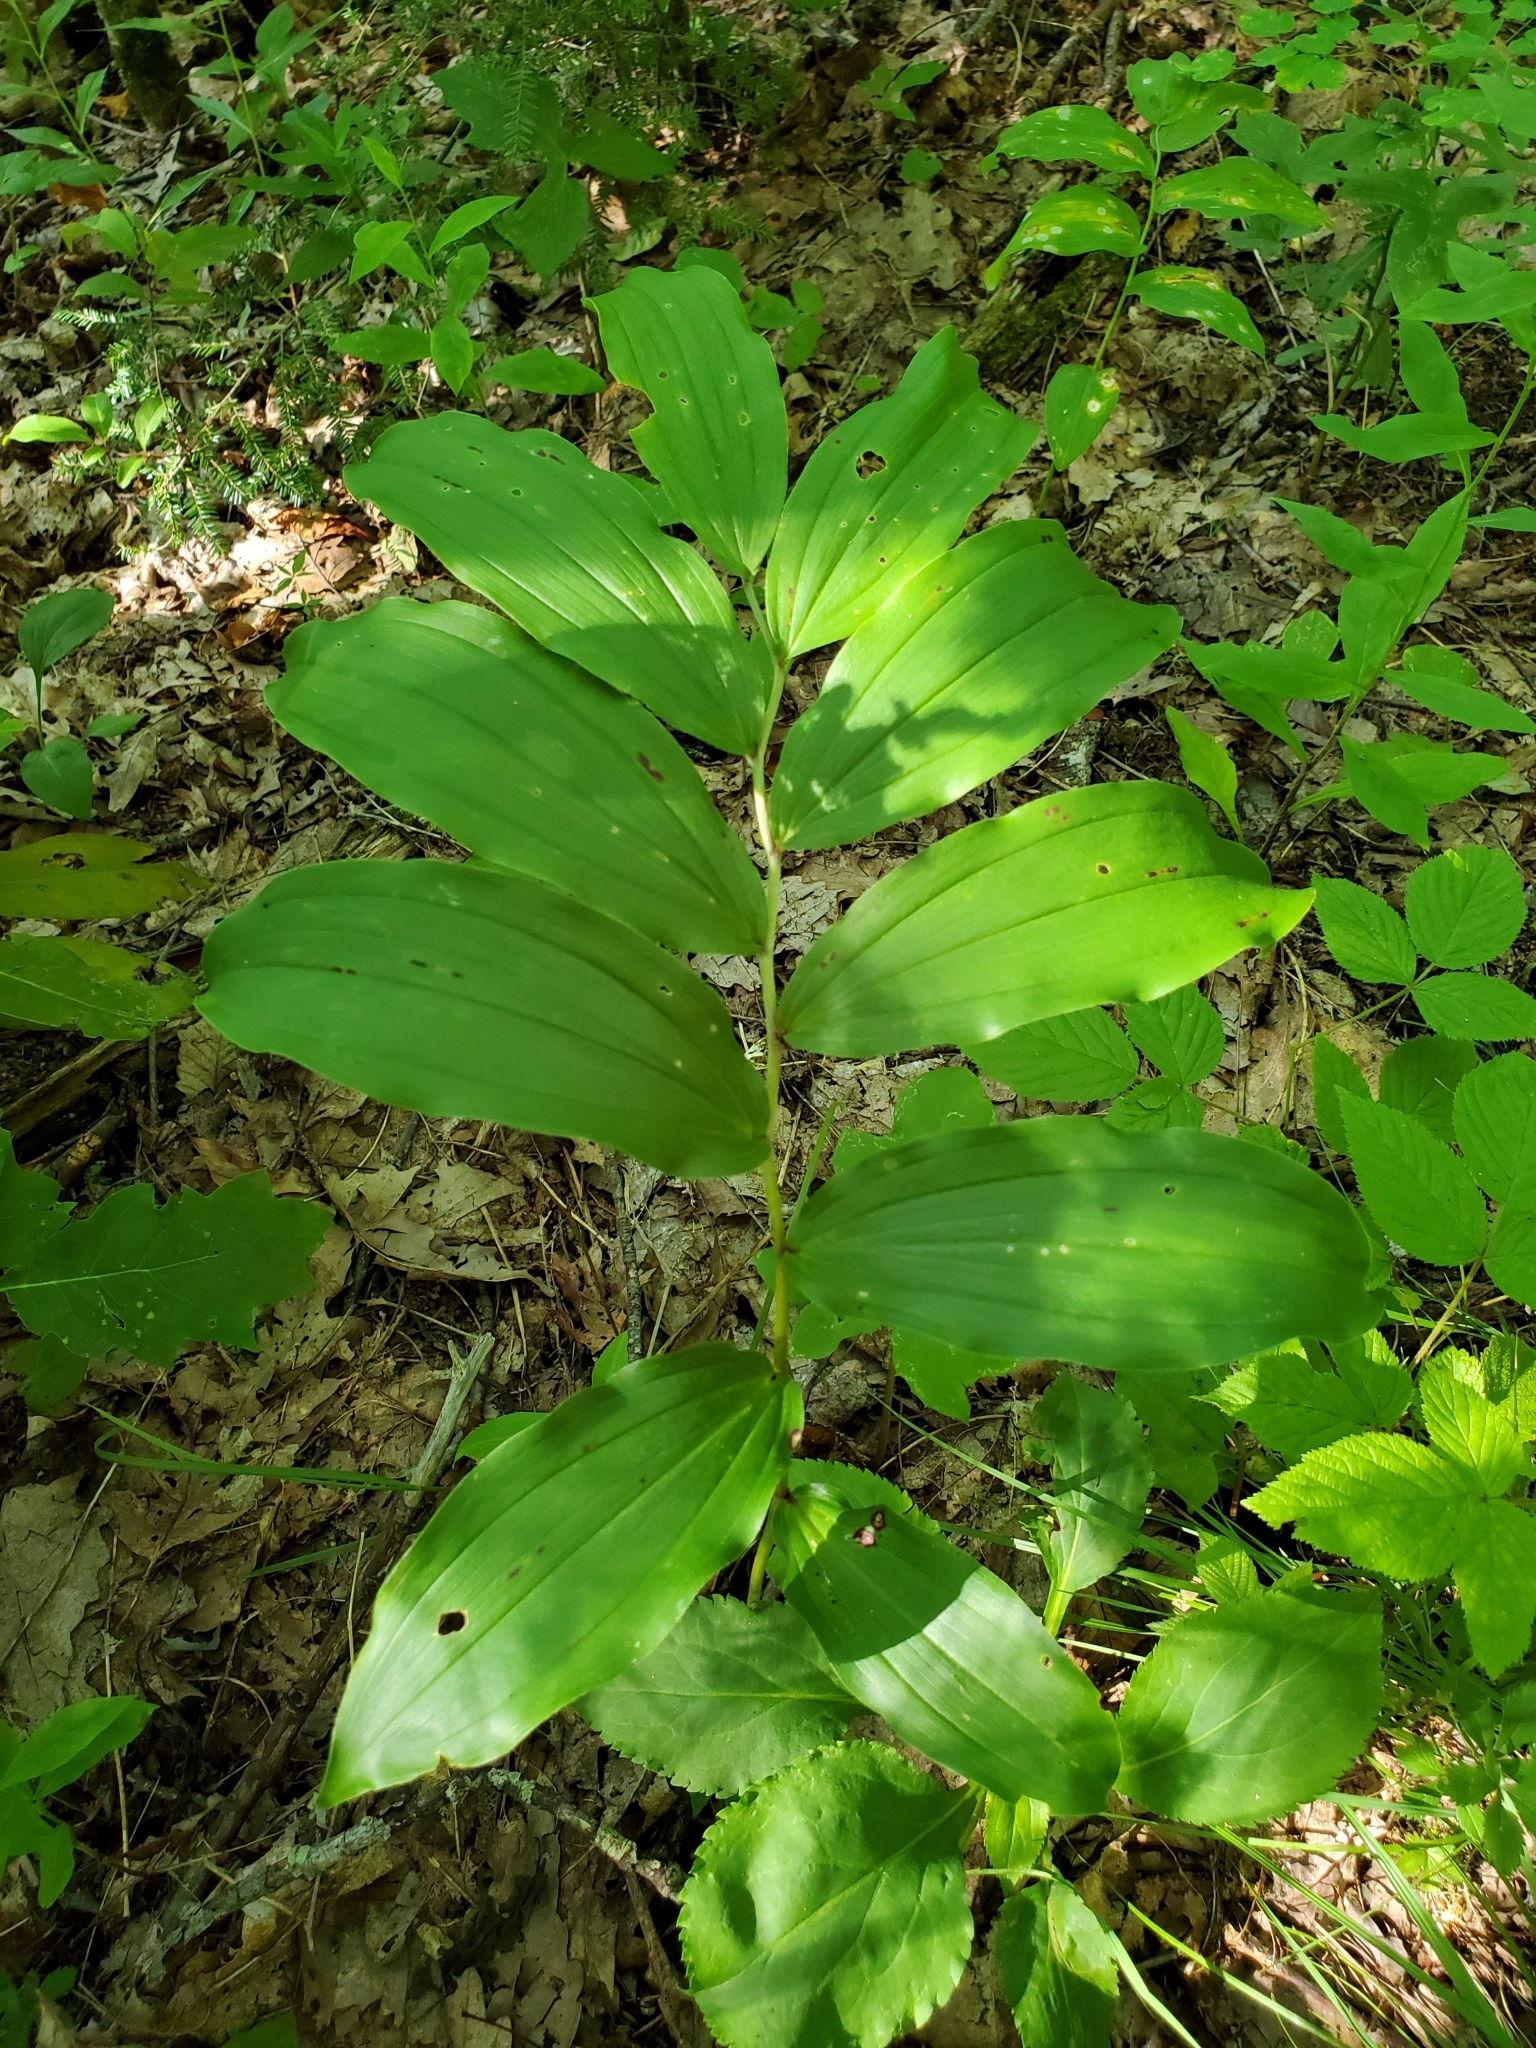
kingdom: Plantae
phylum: Tracheophyta
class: Liliopsida
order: Asparagales
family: Asparagaceae
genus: Maianthemum
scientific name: Maianthemum racemosum
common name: False spikenard
